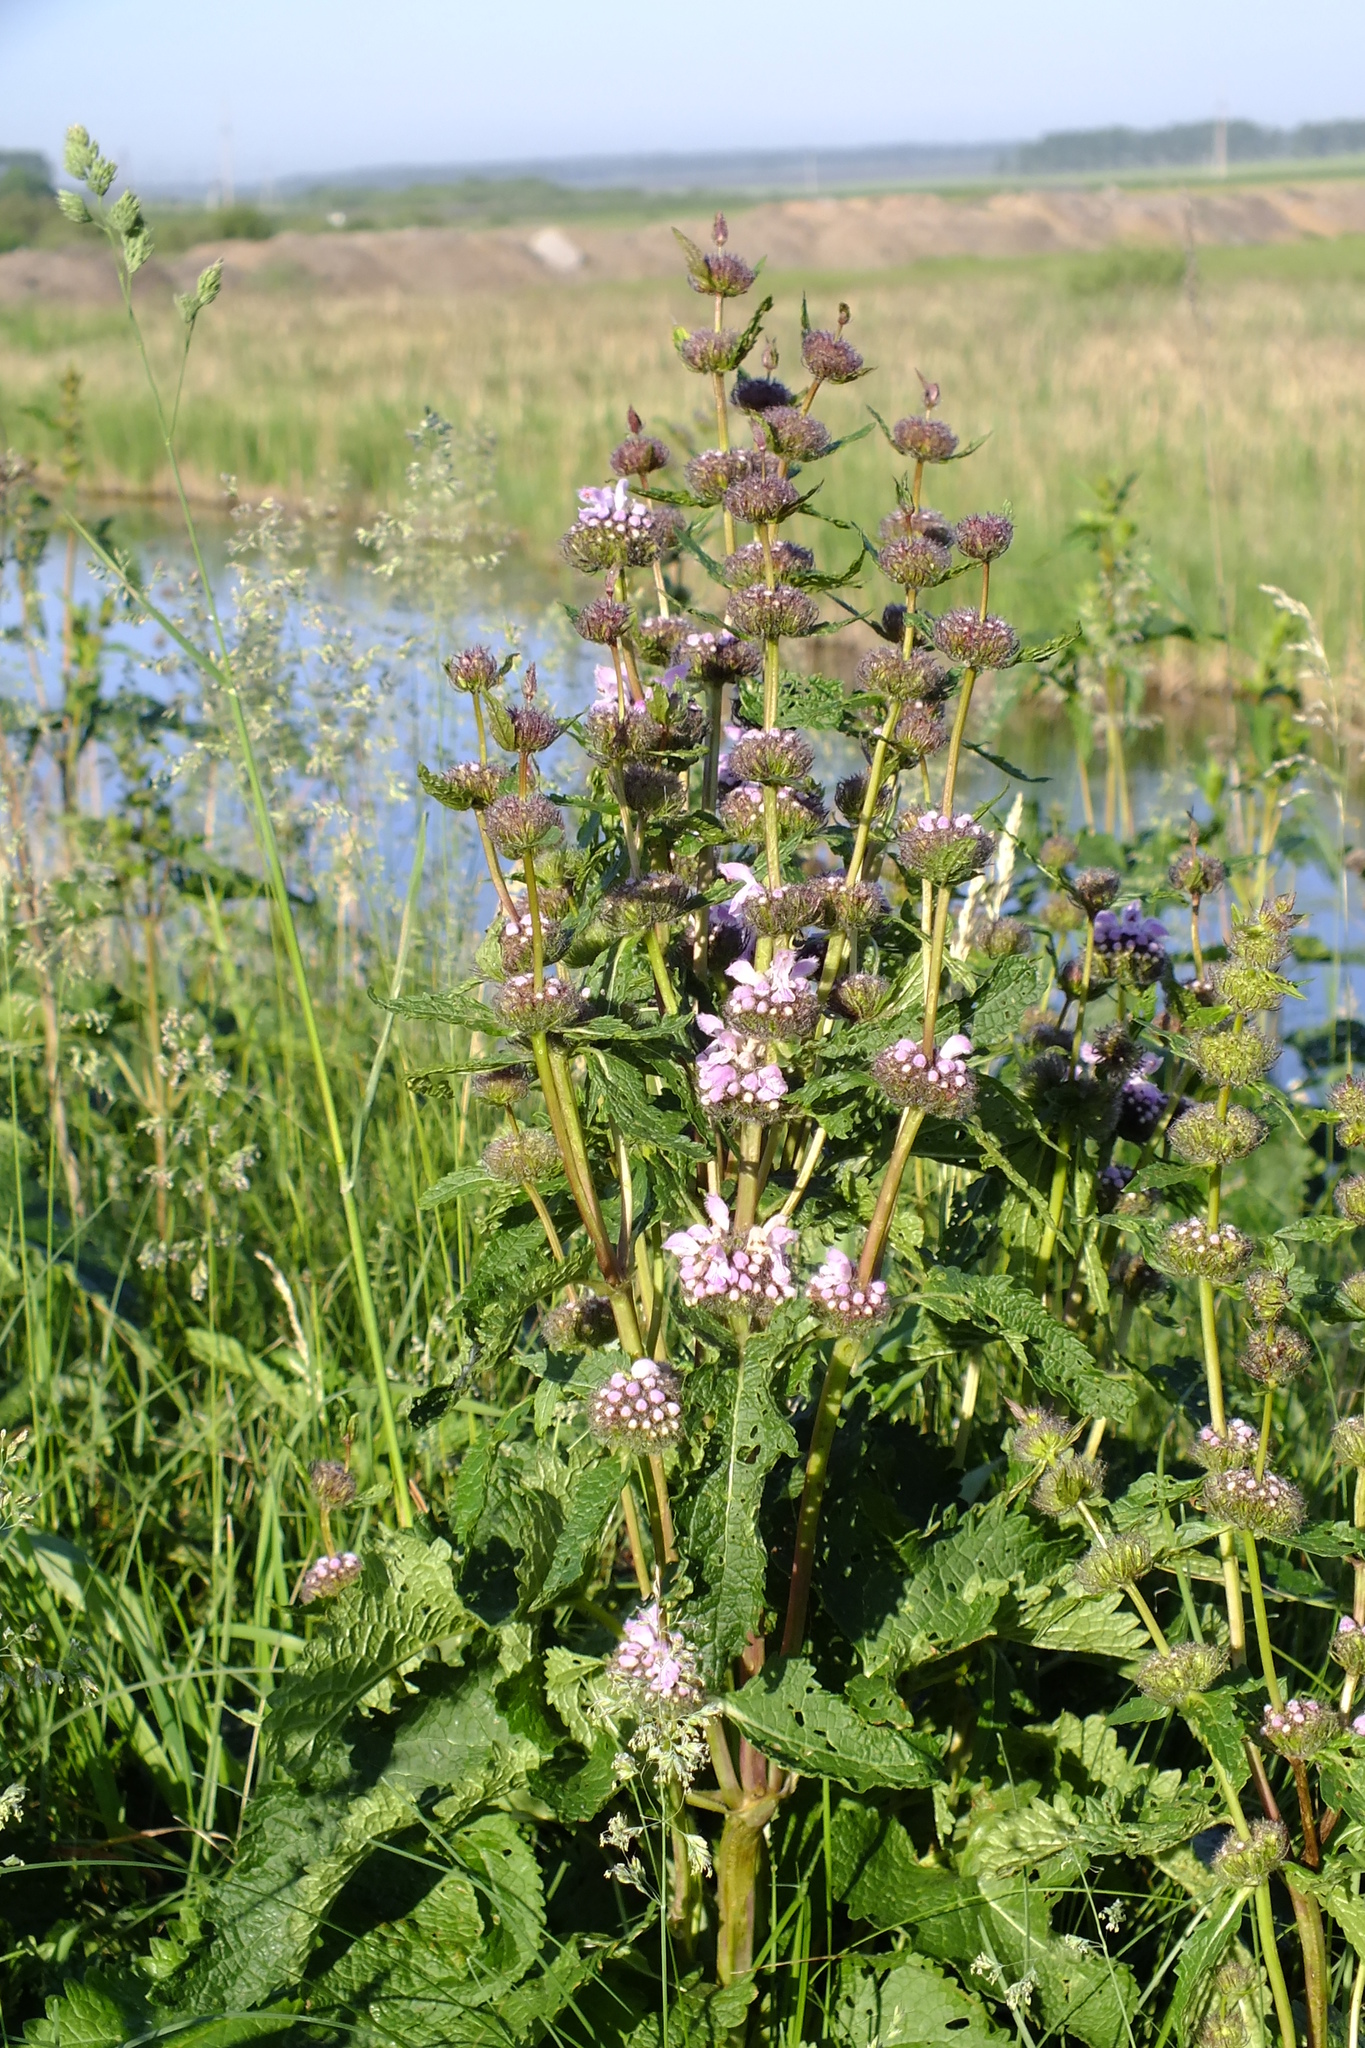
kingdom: Plantae
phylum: Tracheophyta
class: Magnoliopsida
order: Lamiales
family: Lamiaceae
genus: Phlomoides
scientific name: Phlomoides tuberosa
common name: Tuberous jerusalem sage
